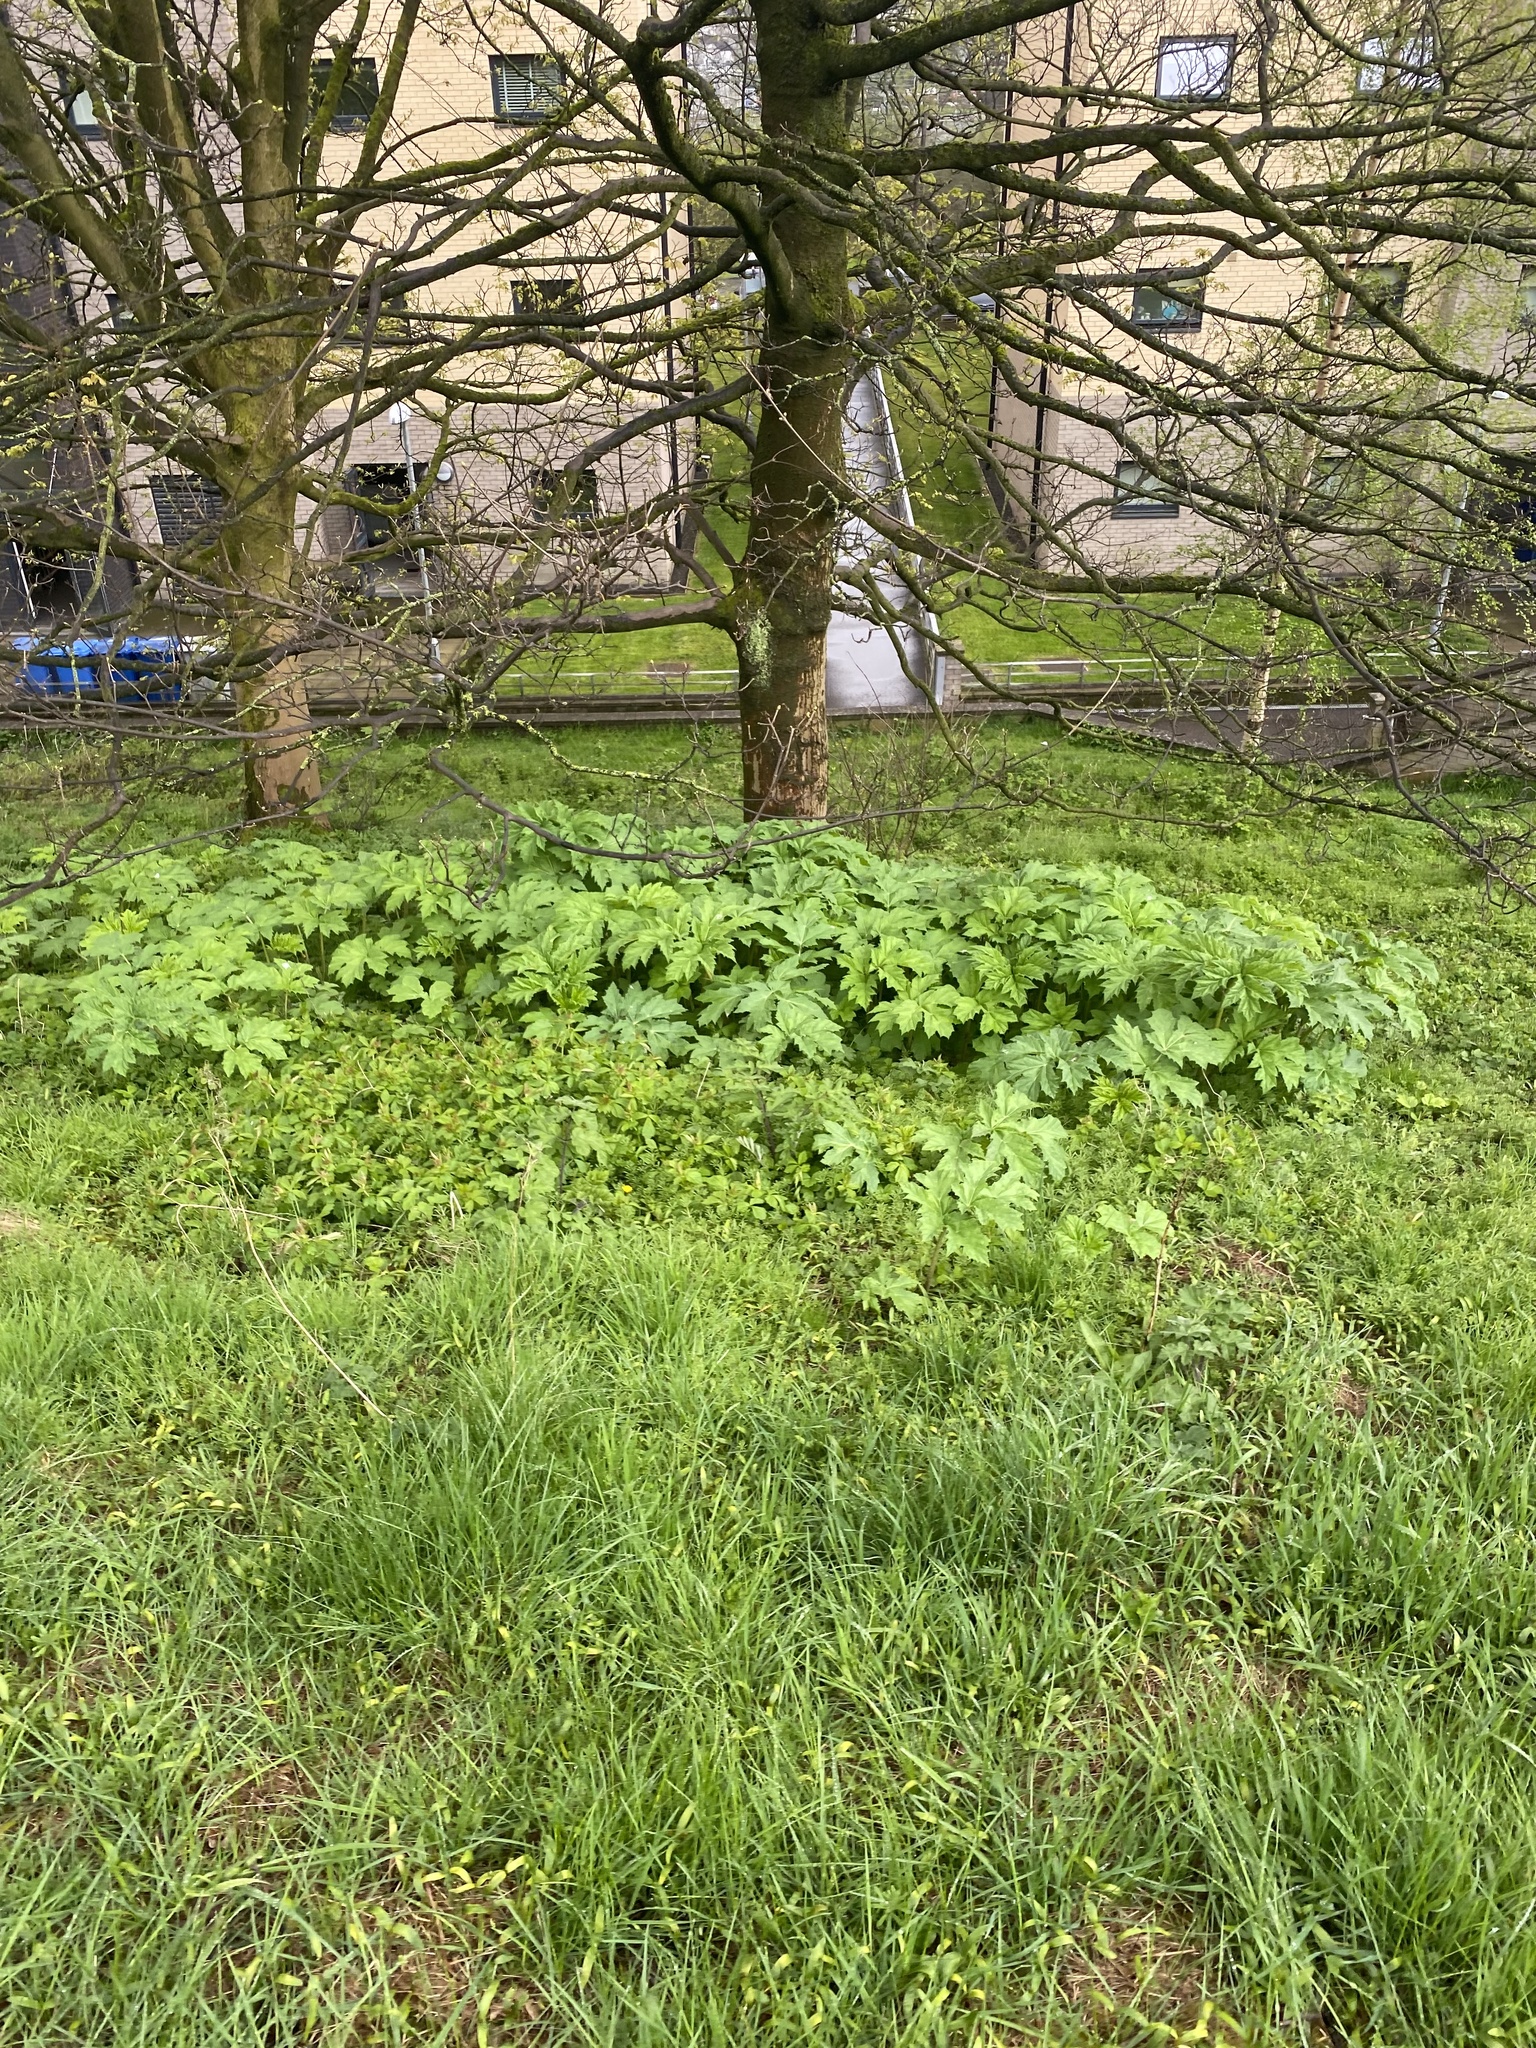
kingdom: Plantae
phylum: Tracheophyta
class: Magnoliopsida
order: Apiales
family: Apiaceae
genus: Heracleum
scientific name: Heracleum mantegazzianum
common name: Giant hogweed
